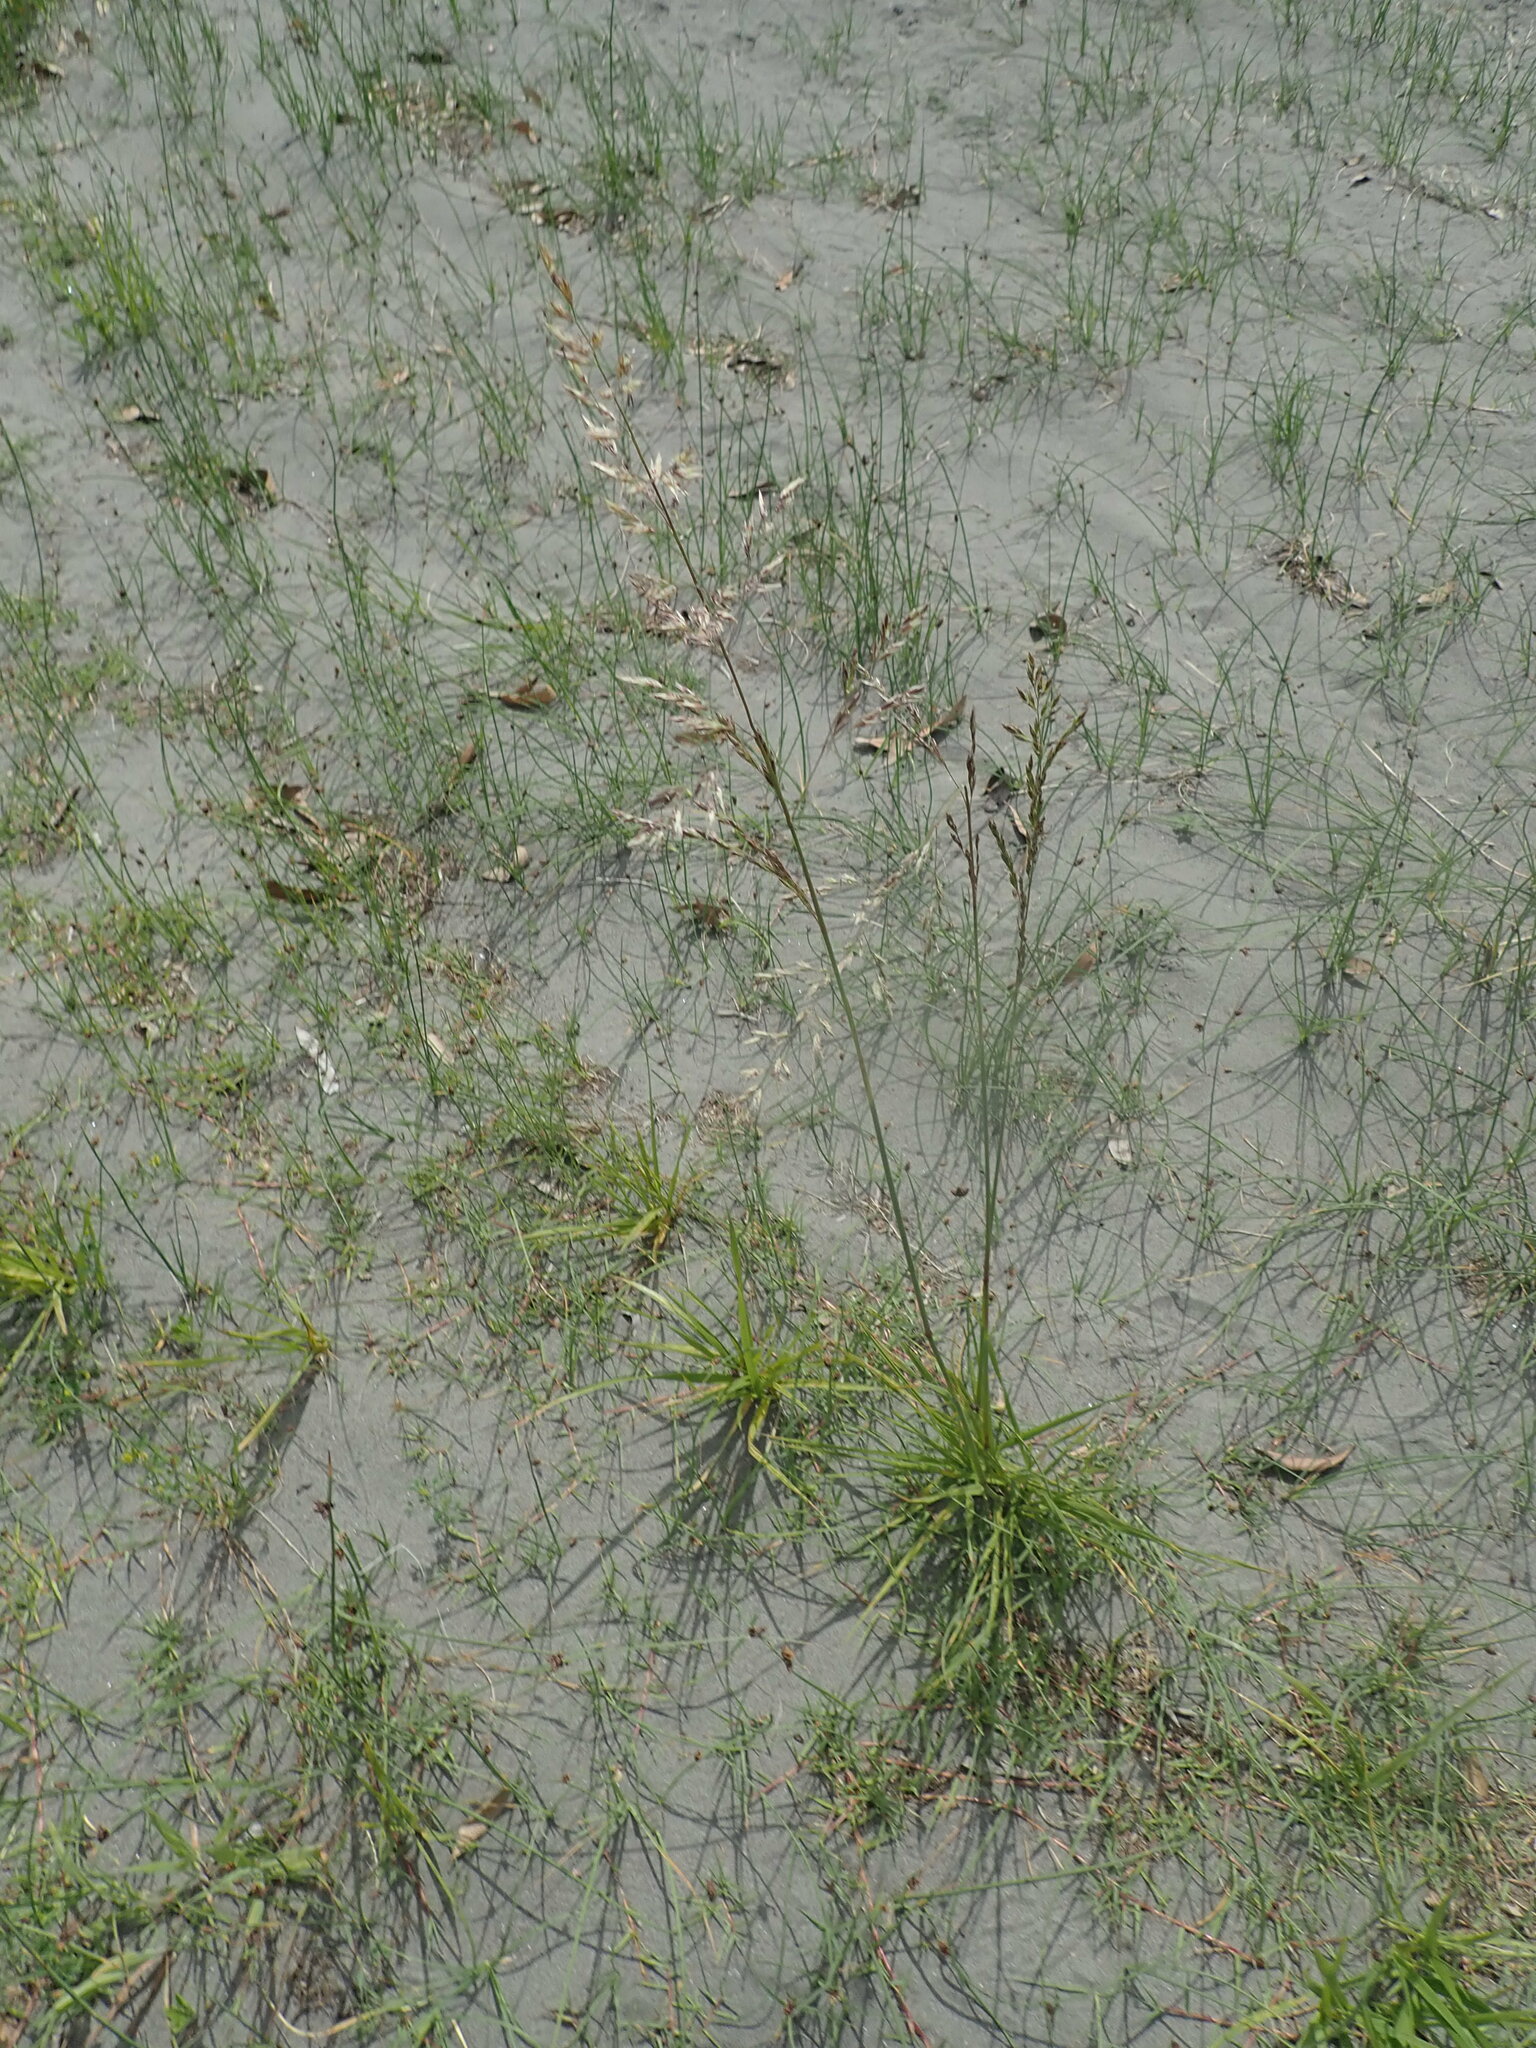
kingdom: Plantae
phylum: Tracheophyta
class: Liliopsida
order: Poales
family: Poaceae
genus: Lolium
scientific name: Lolium arundinaceum
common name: Reed fescue
